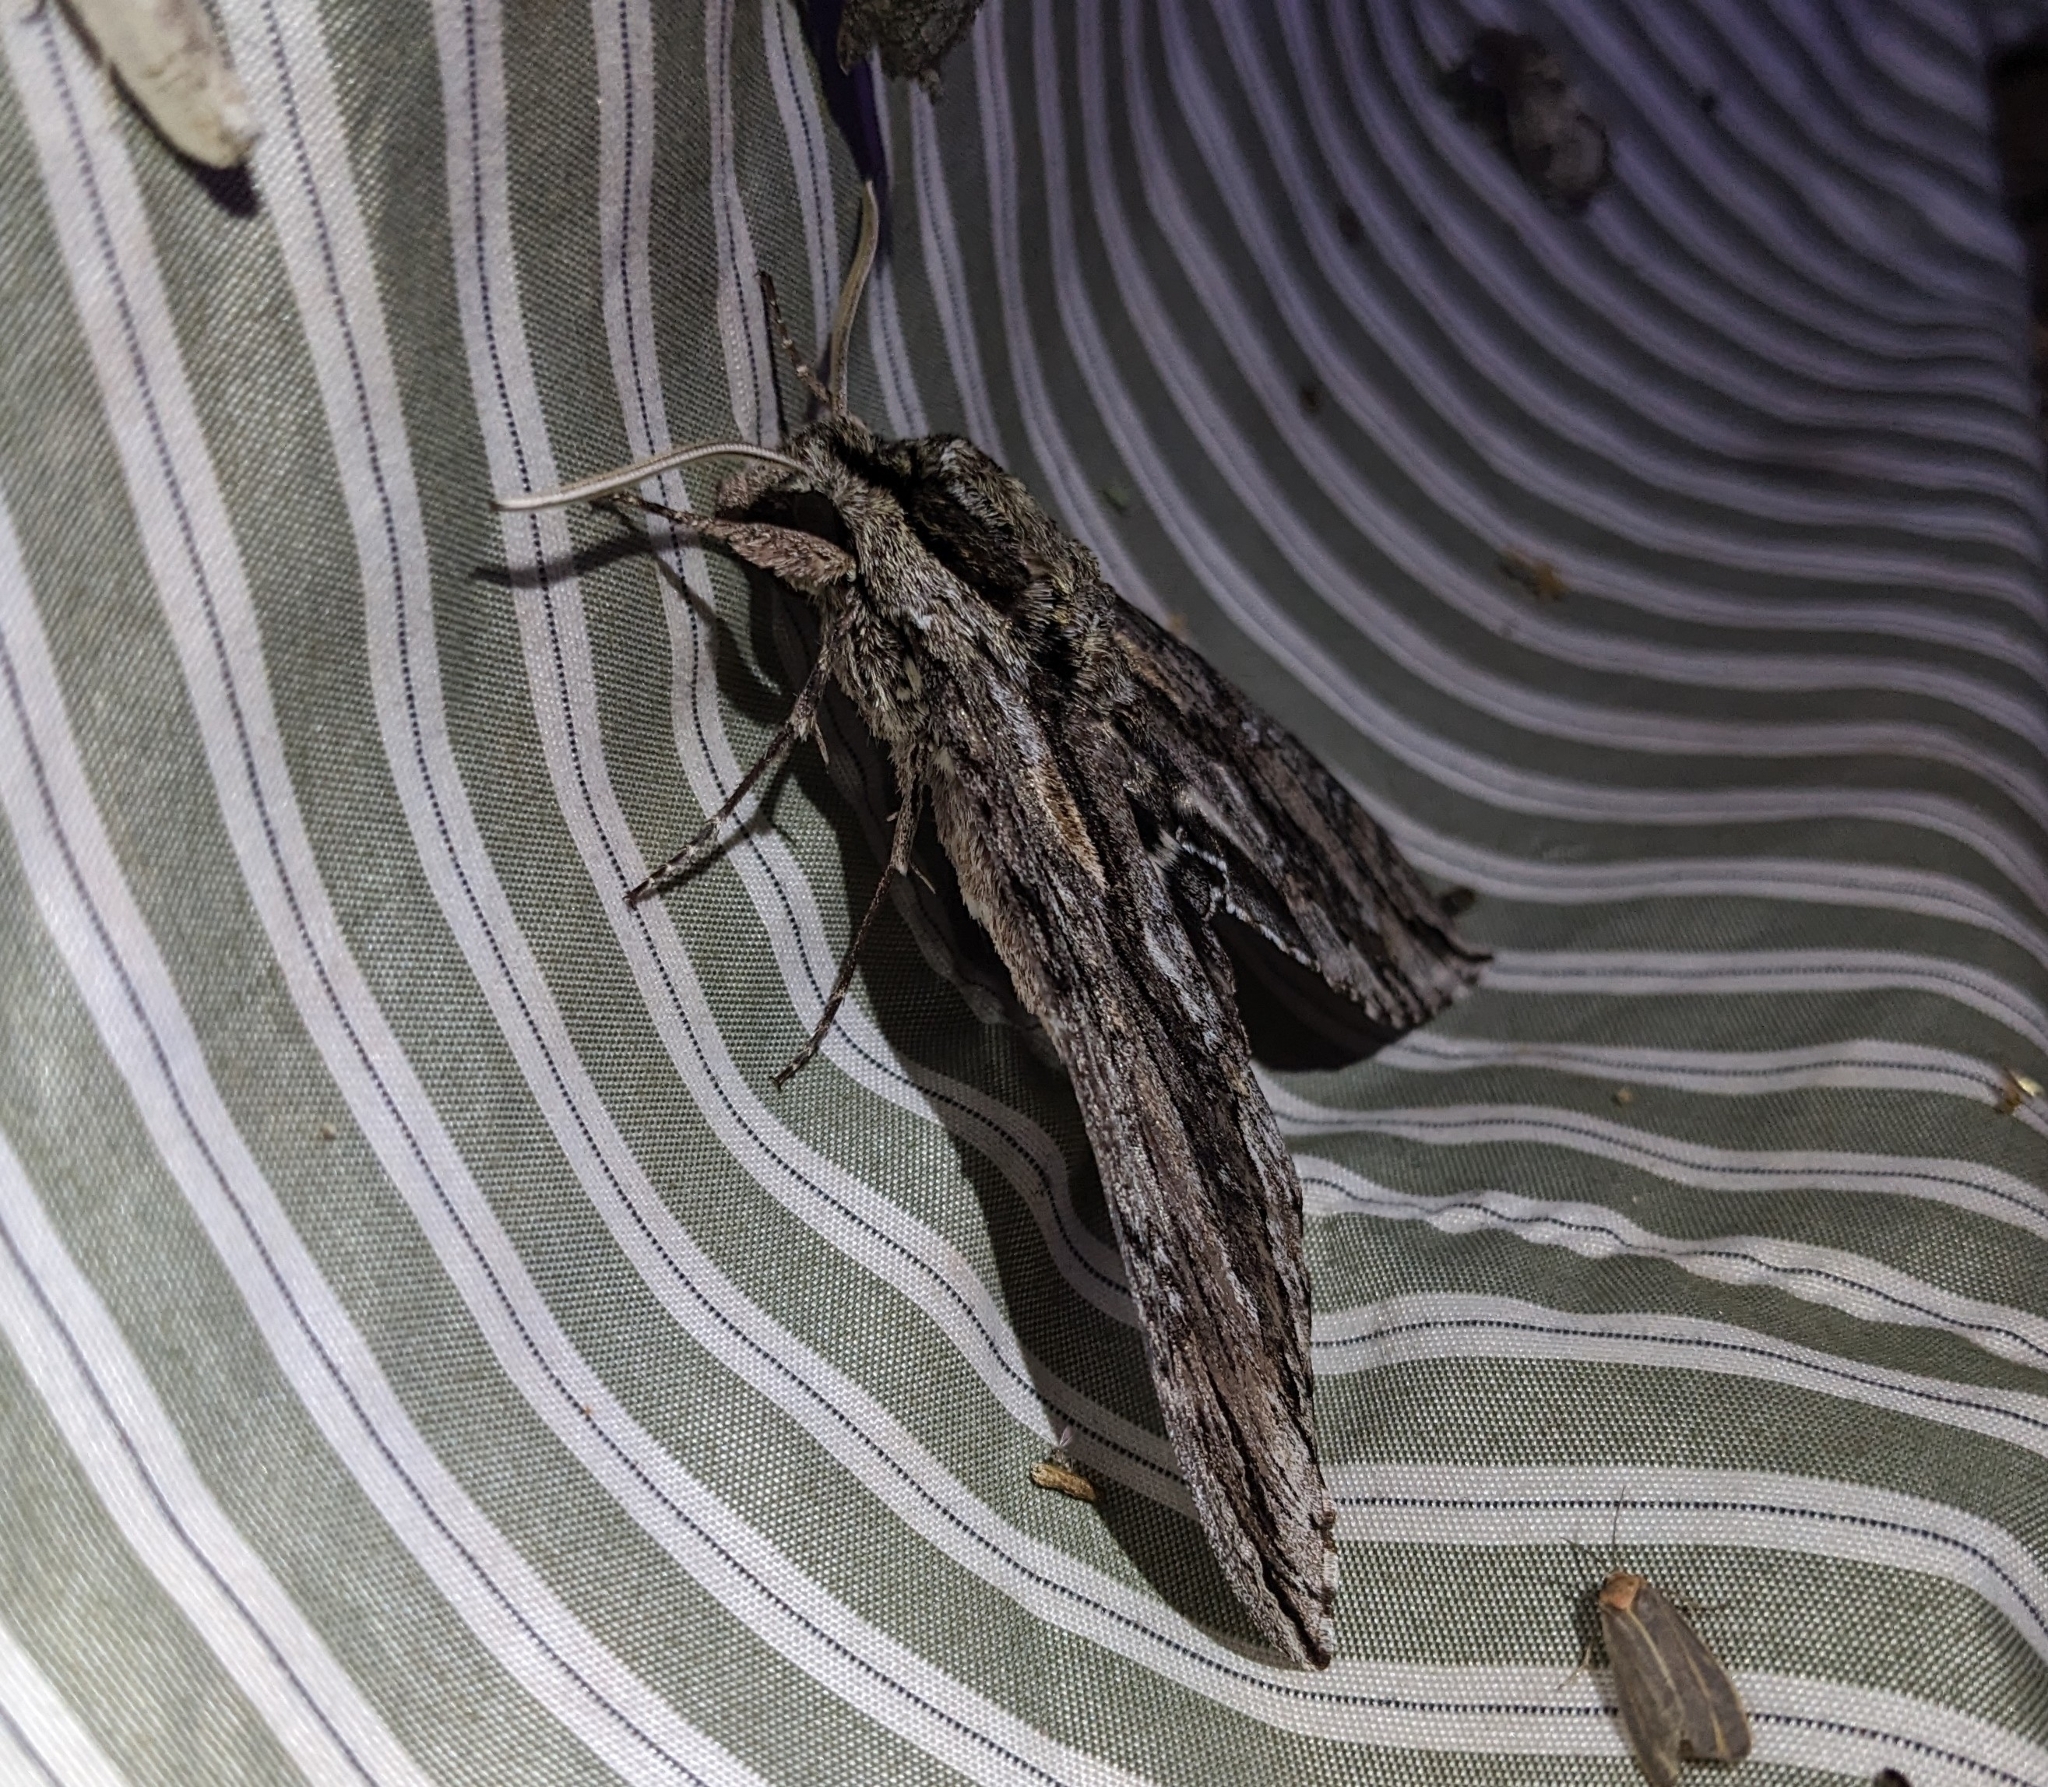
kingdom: Animalia
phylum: Arthropoda
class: Insecta
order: Lepidoptera
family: Sphingidae
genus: Lintneria
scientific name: Lintneria istar
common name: Istar sphinx
